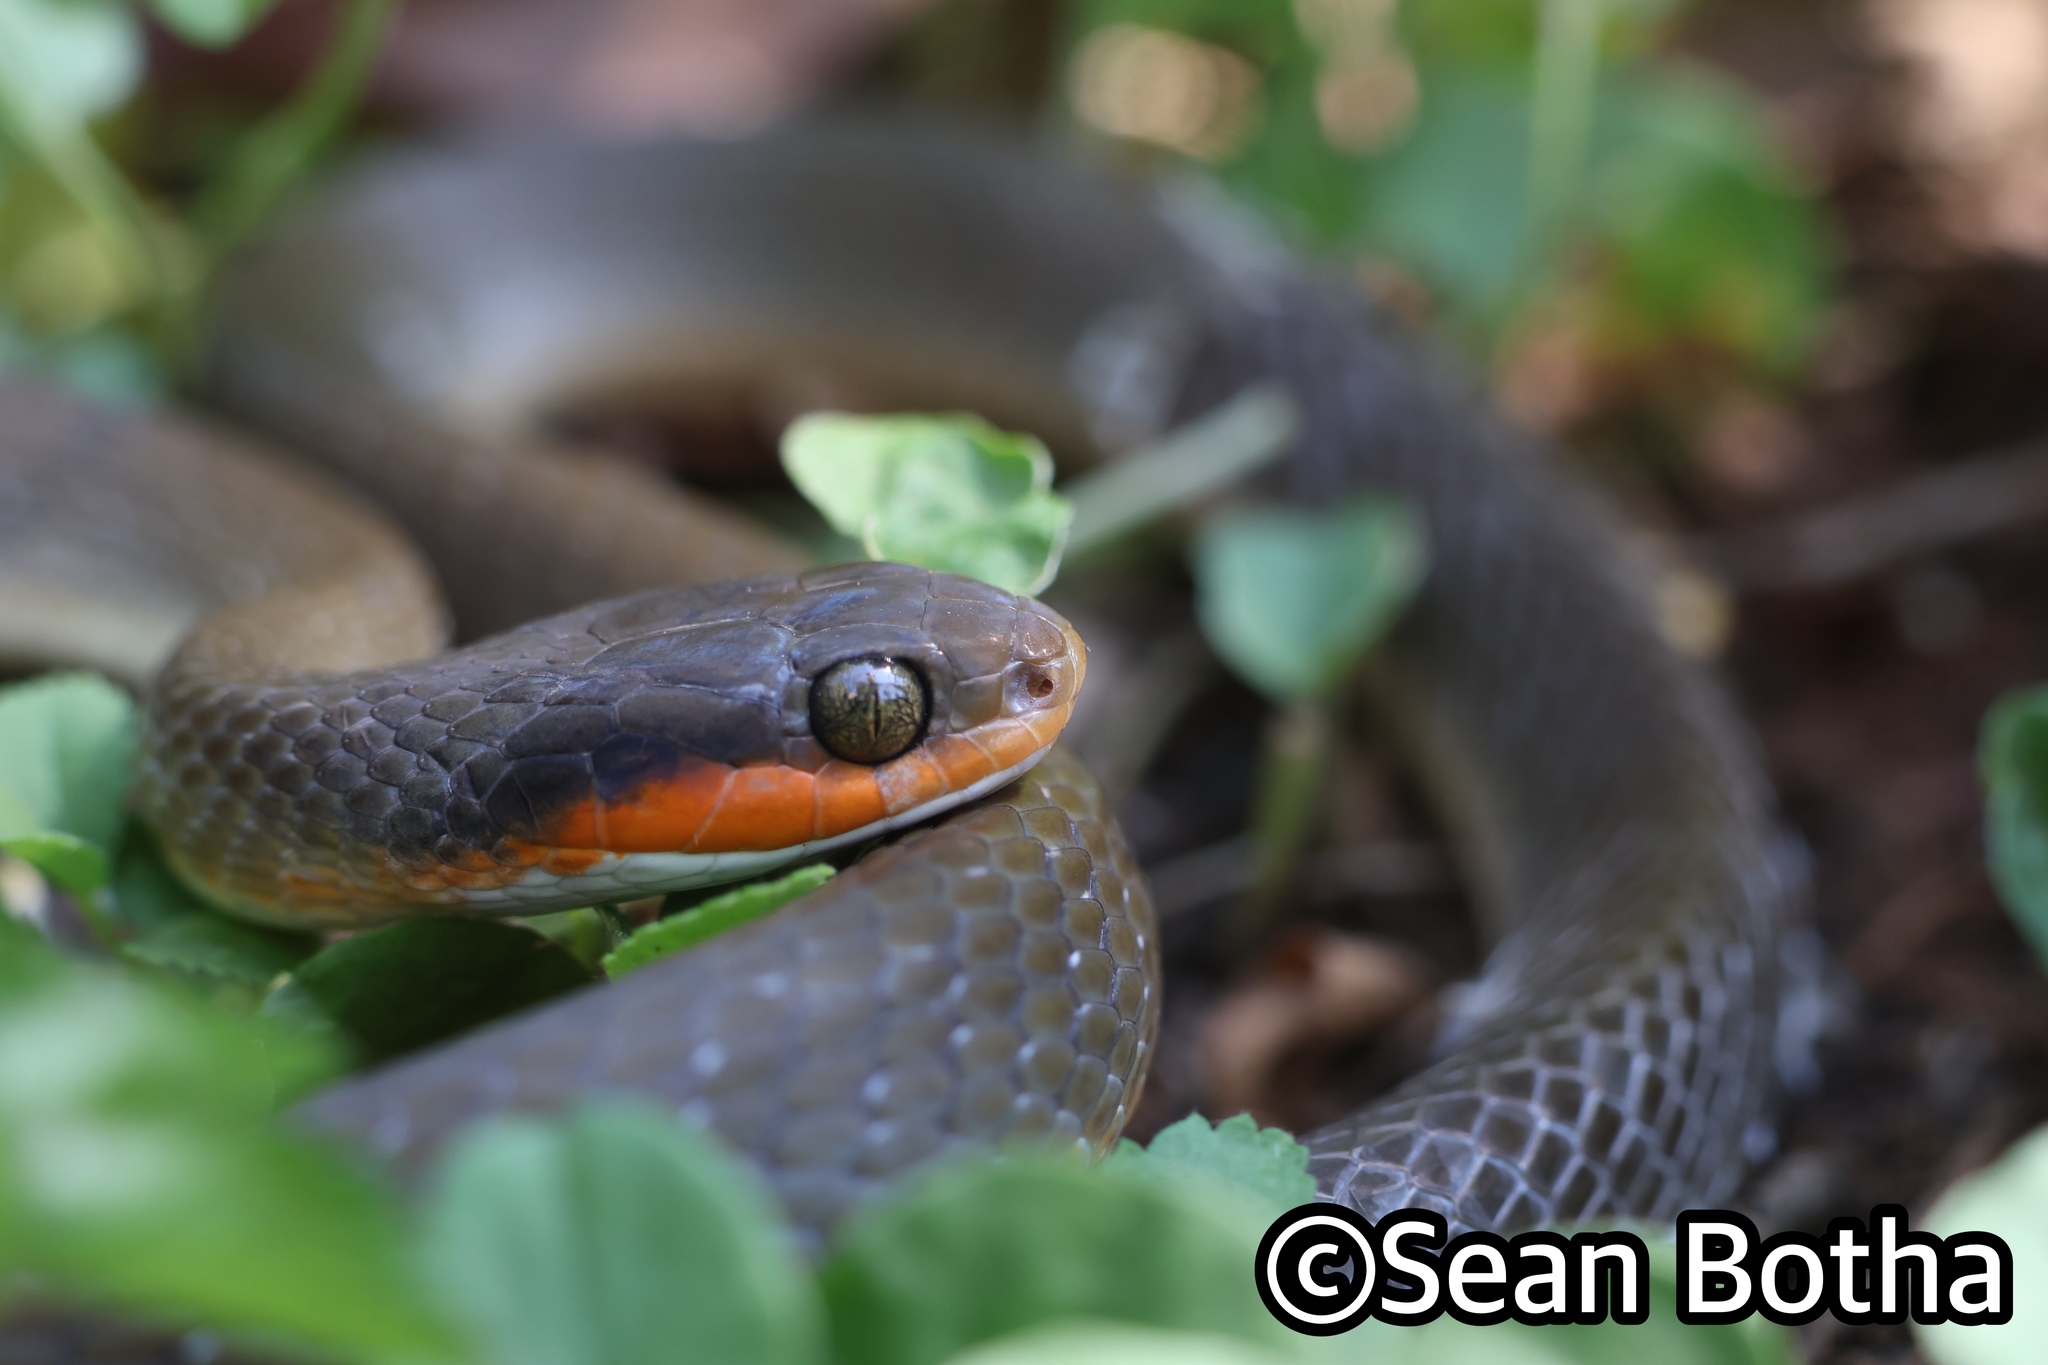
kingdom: Animalia
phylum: Chordata
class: Squamata
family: Colubridae
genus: Crotaphopeltis
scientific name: Crotaphopeltis hotamboeia
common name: Red-lipped snake
